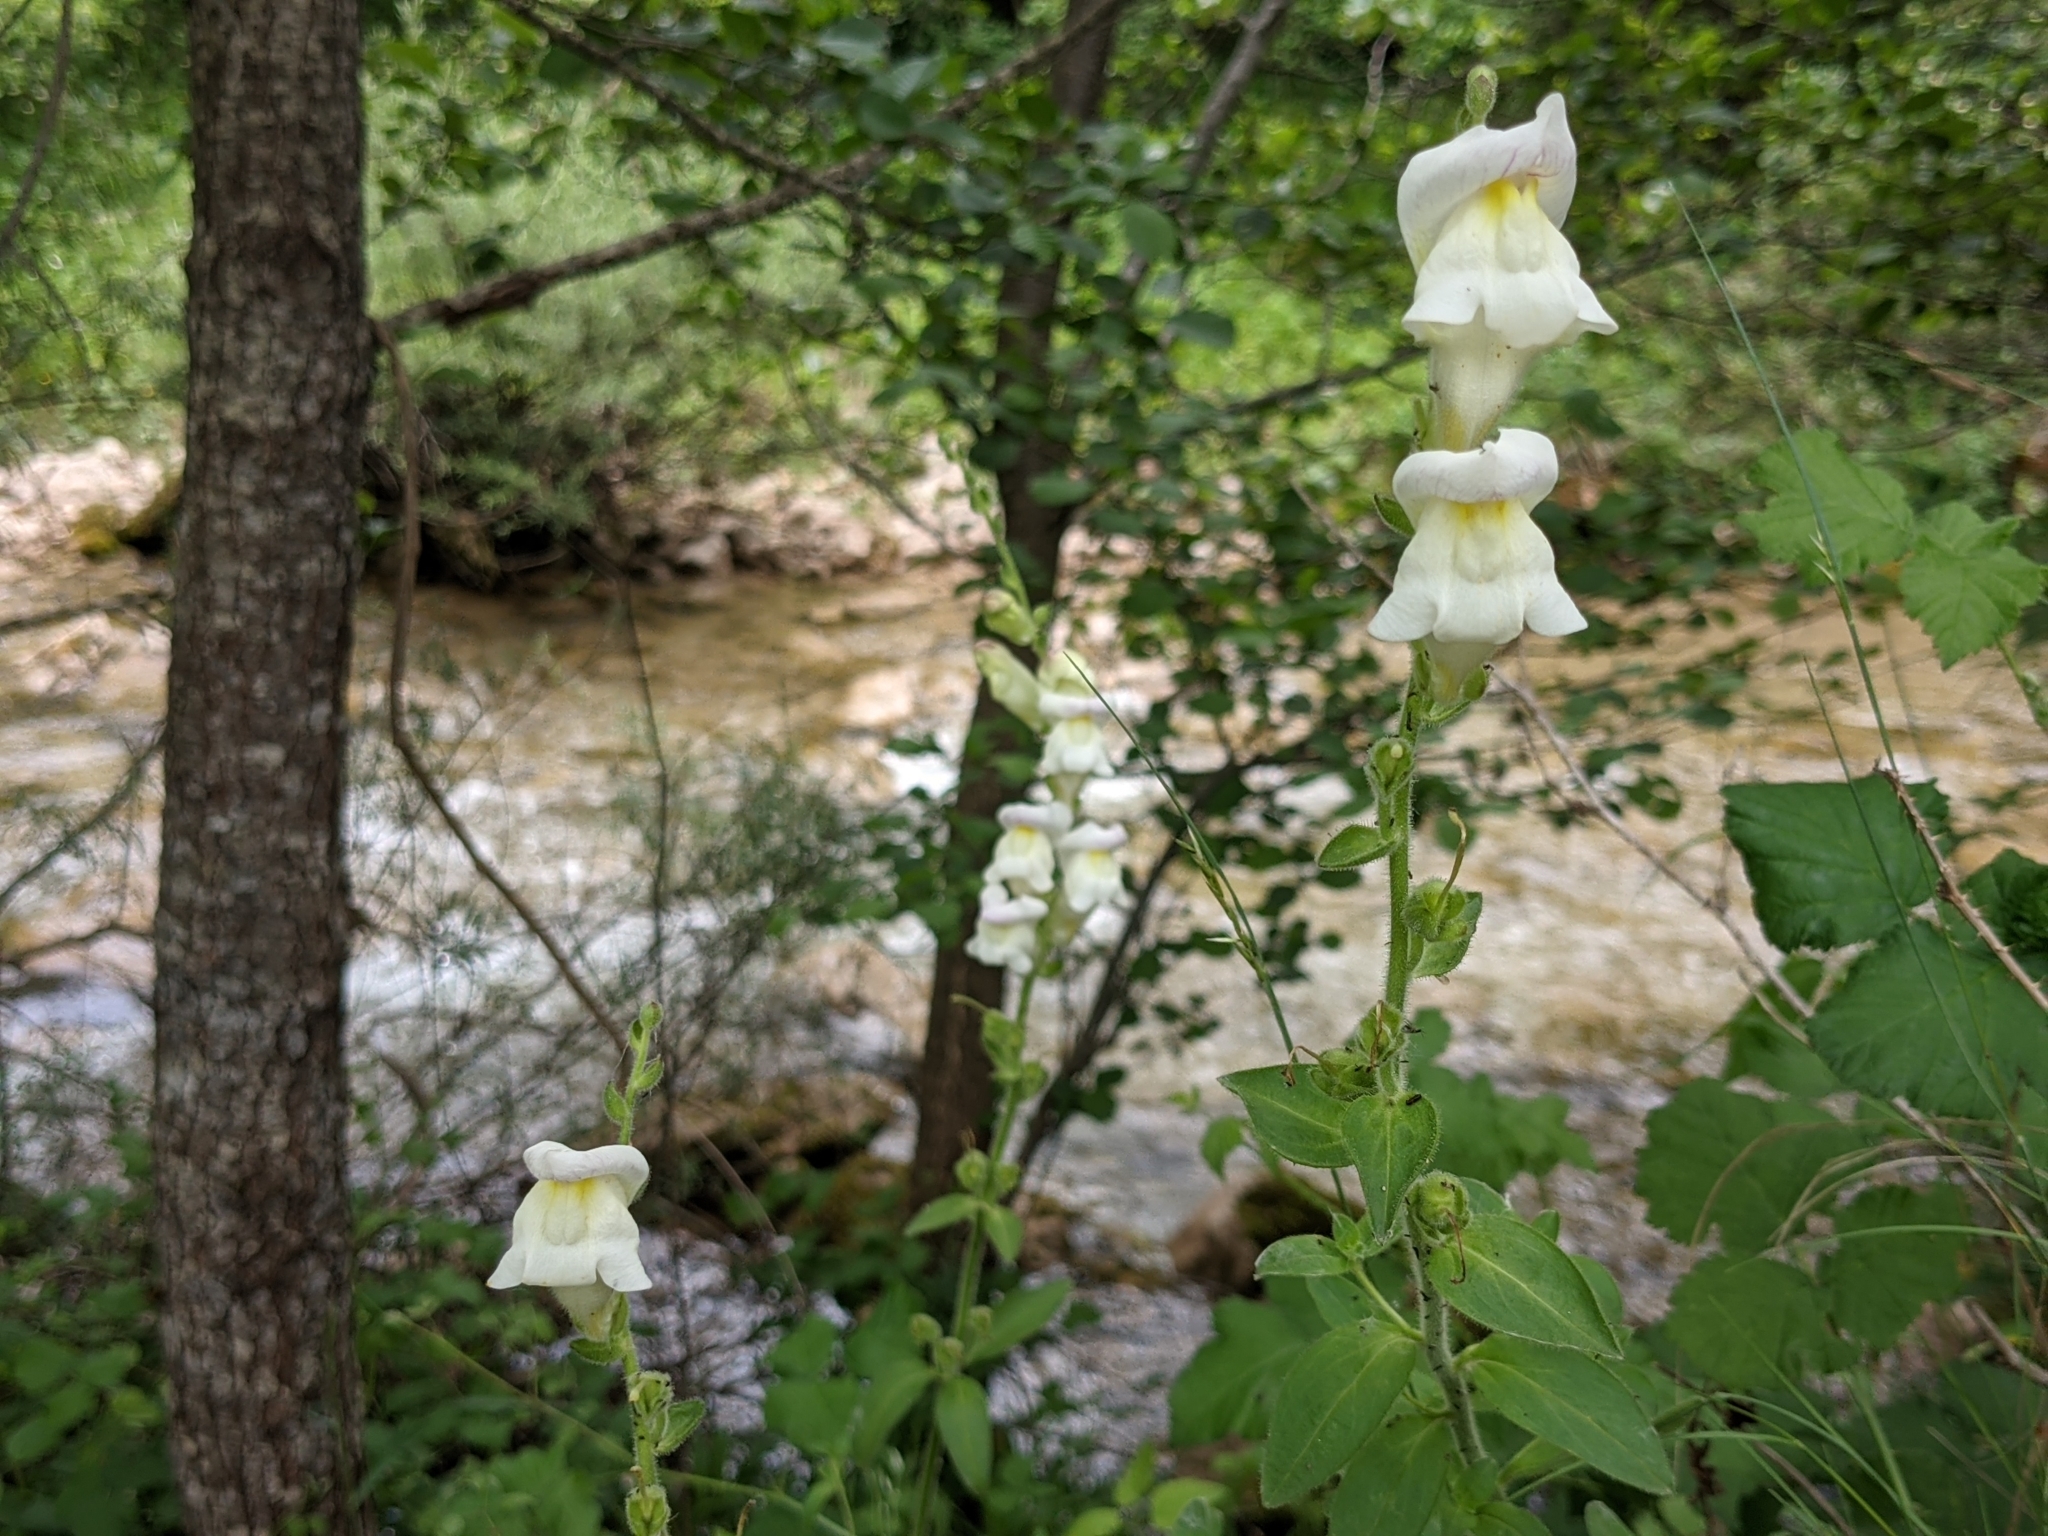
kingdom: Plantae
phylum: Tracheophyta
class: Magnoliopsida
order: Lamiales
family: Plantaginaceae
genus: Antirrhinum
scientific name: Antirrhinum latifolium
